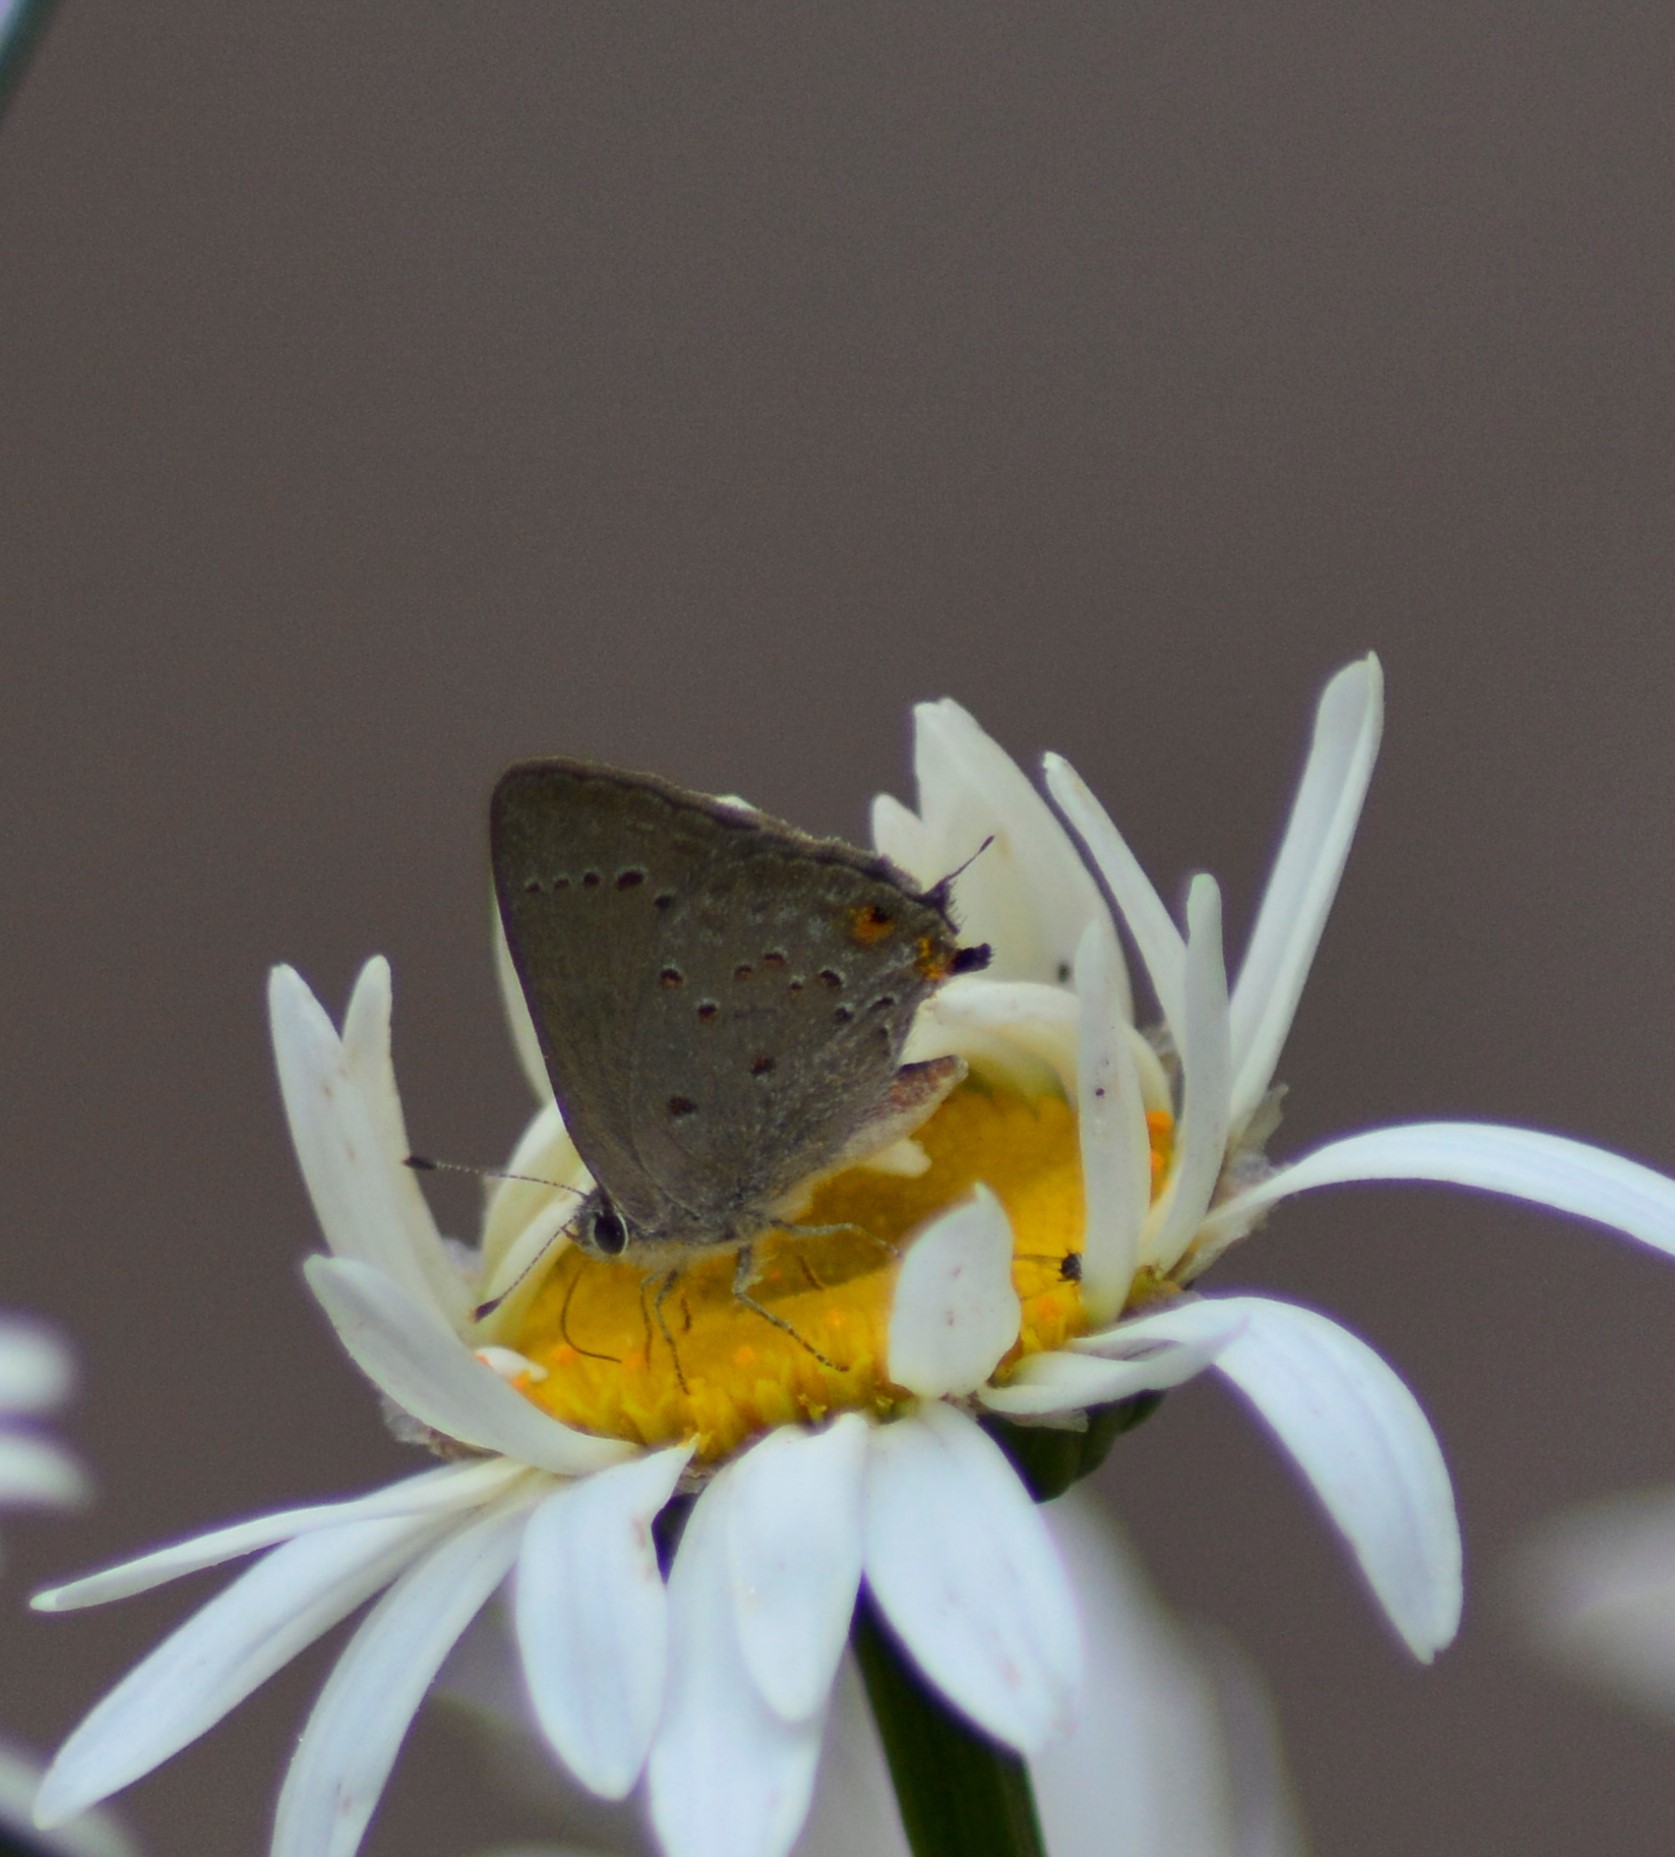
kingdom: Animalia
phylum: Arthropoda
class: Insecta
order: Lepidoptera
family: Lycaenidae
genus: Strymon
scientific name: Strymon eurytulus
